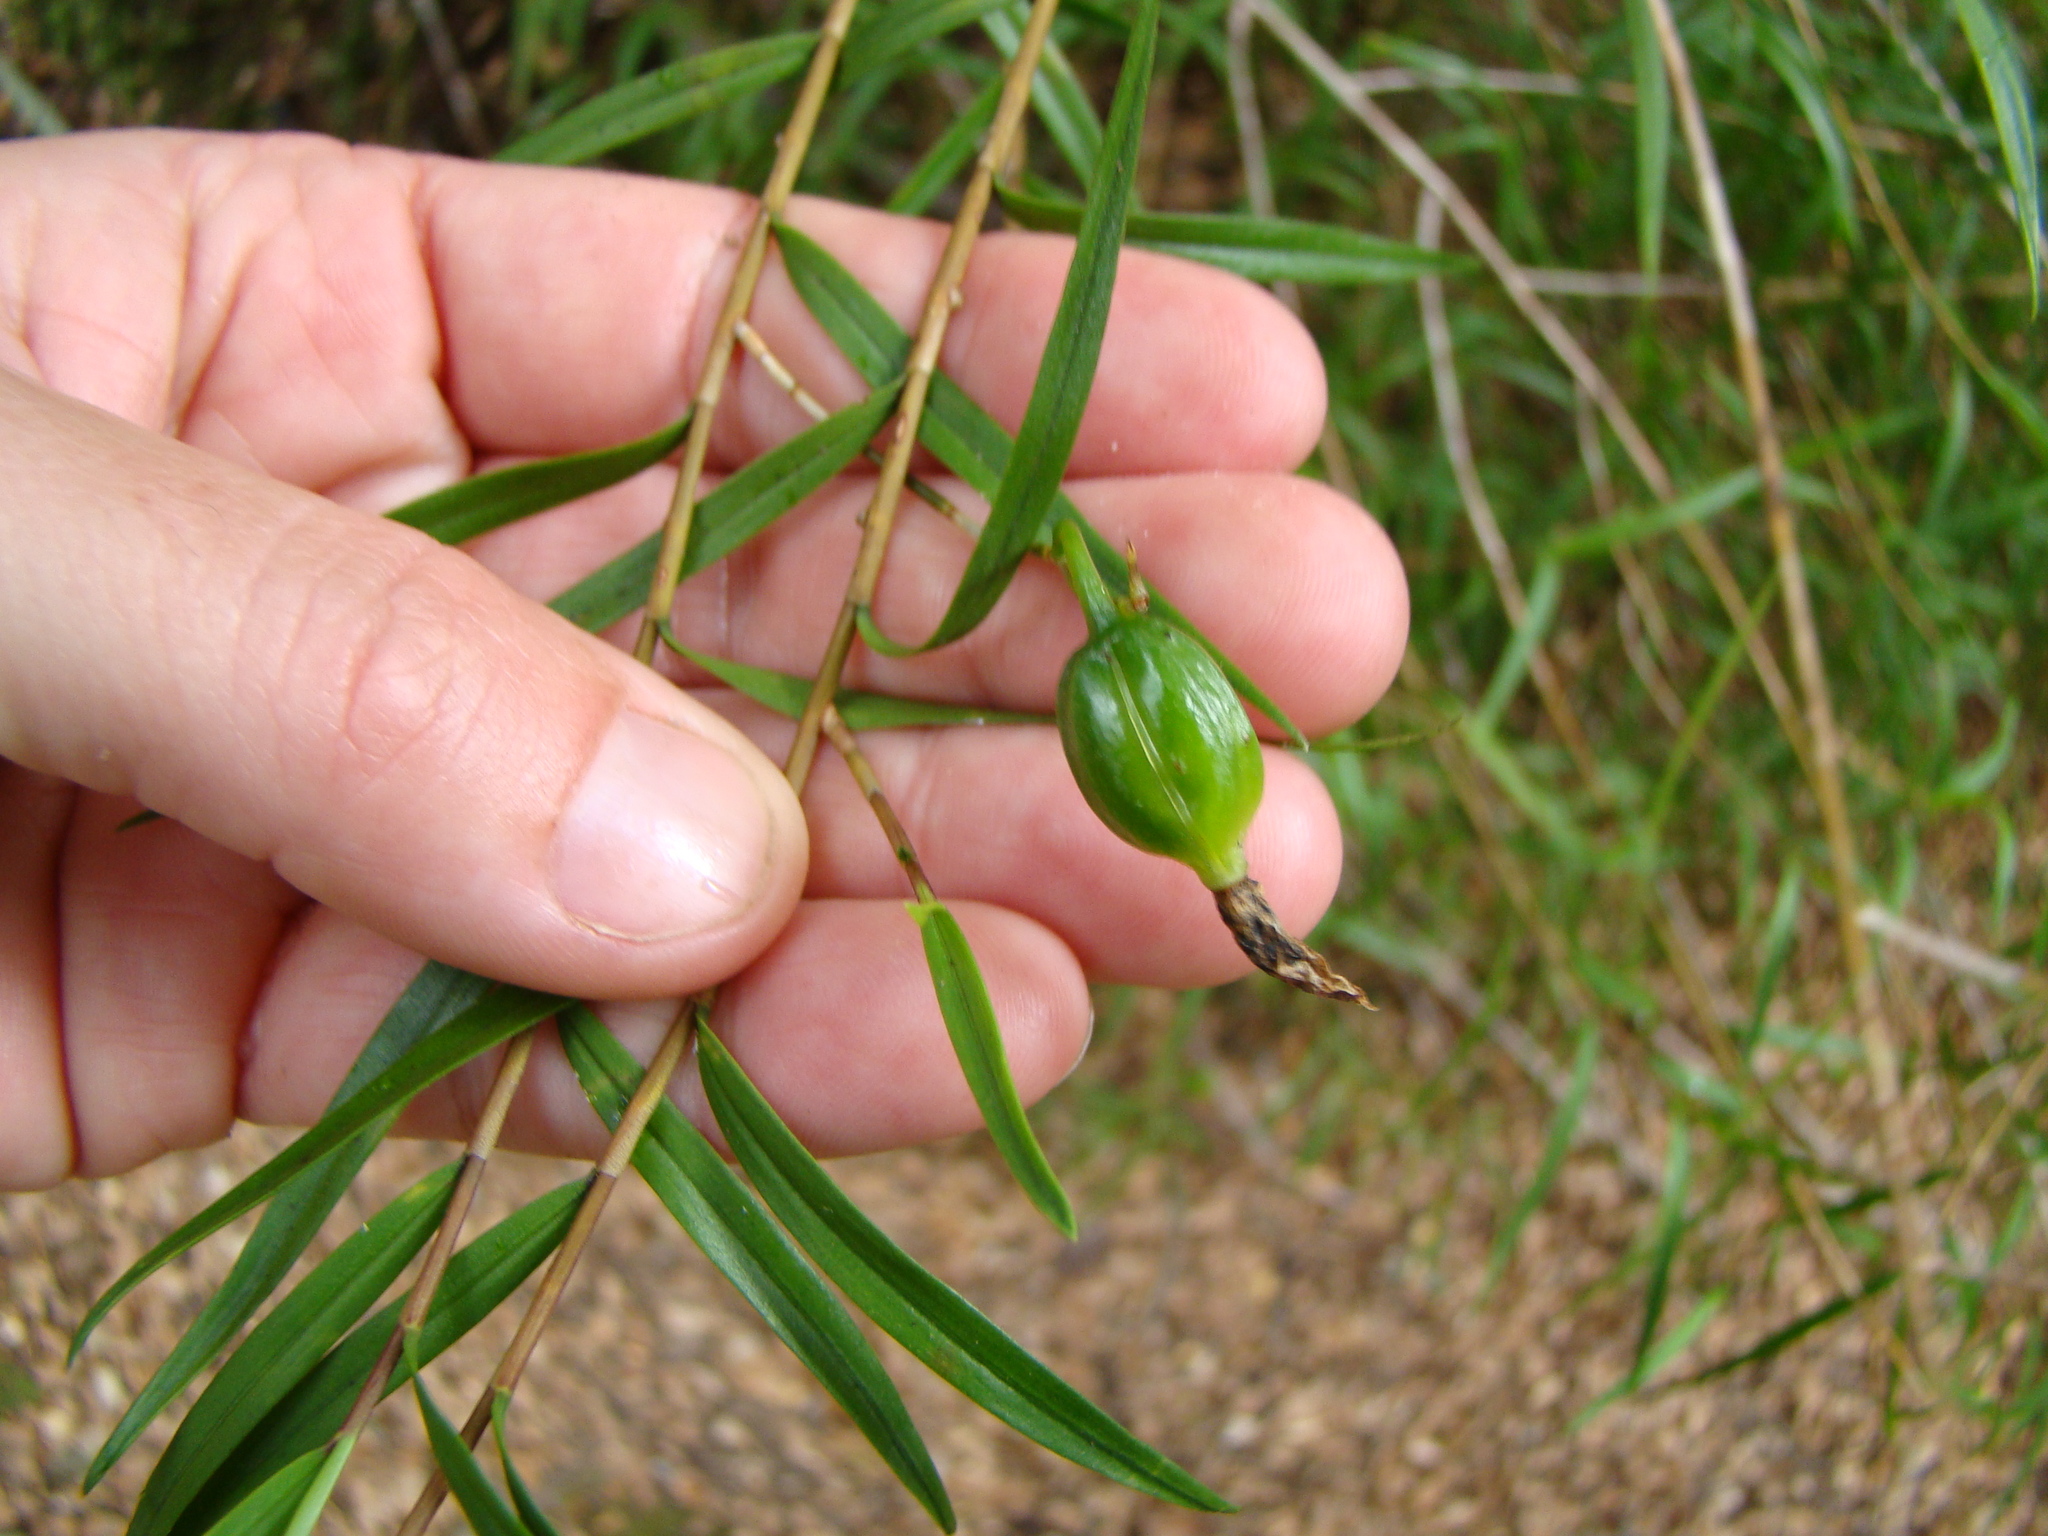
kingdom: Plantae
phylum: Tracheophyta
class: Liliopsida
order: Asparagales
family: Orchidaceae
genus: Dendrobium
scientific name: Dendrobium cunninghamii
